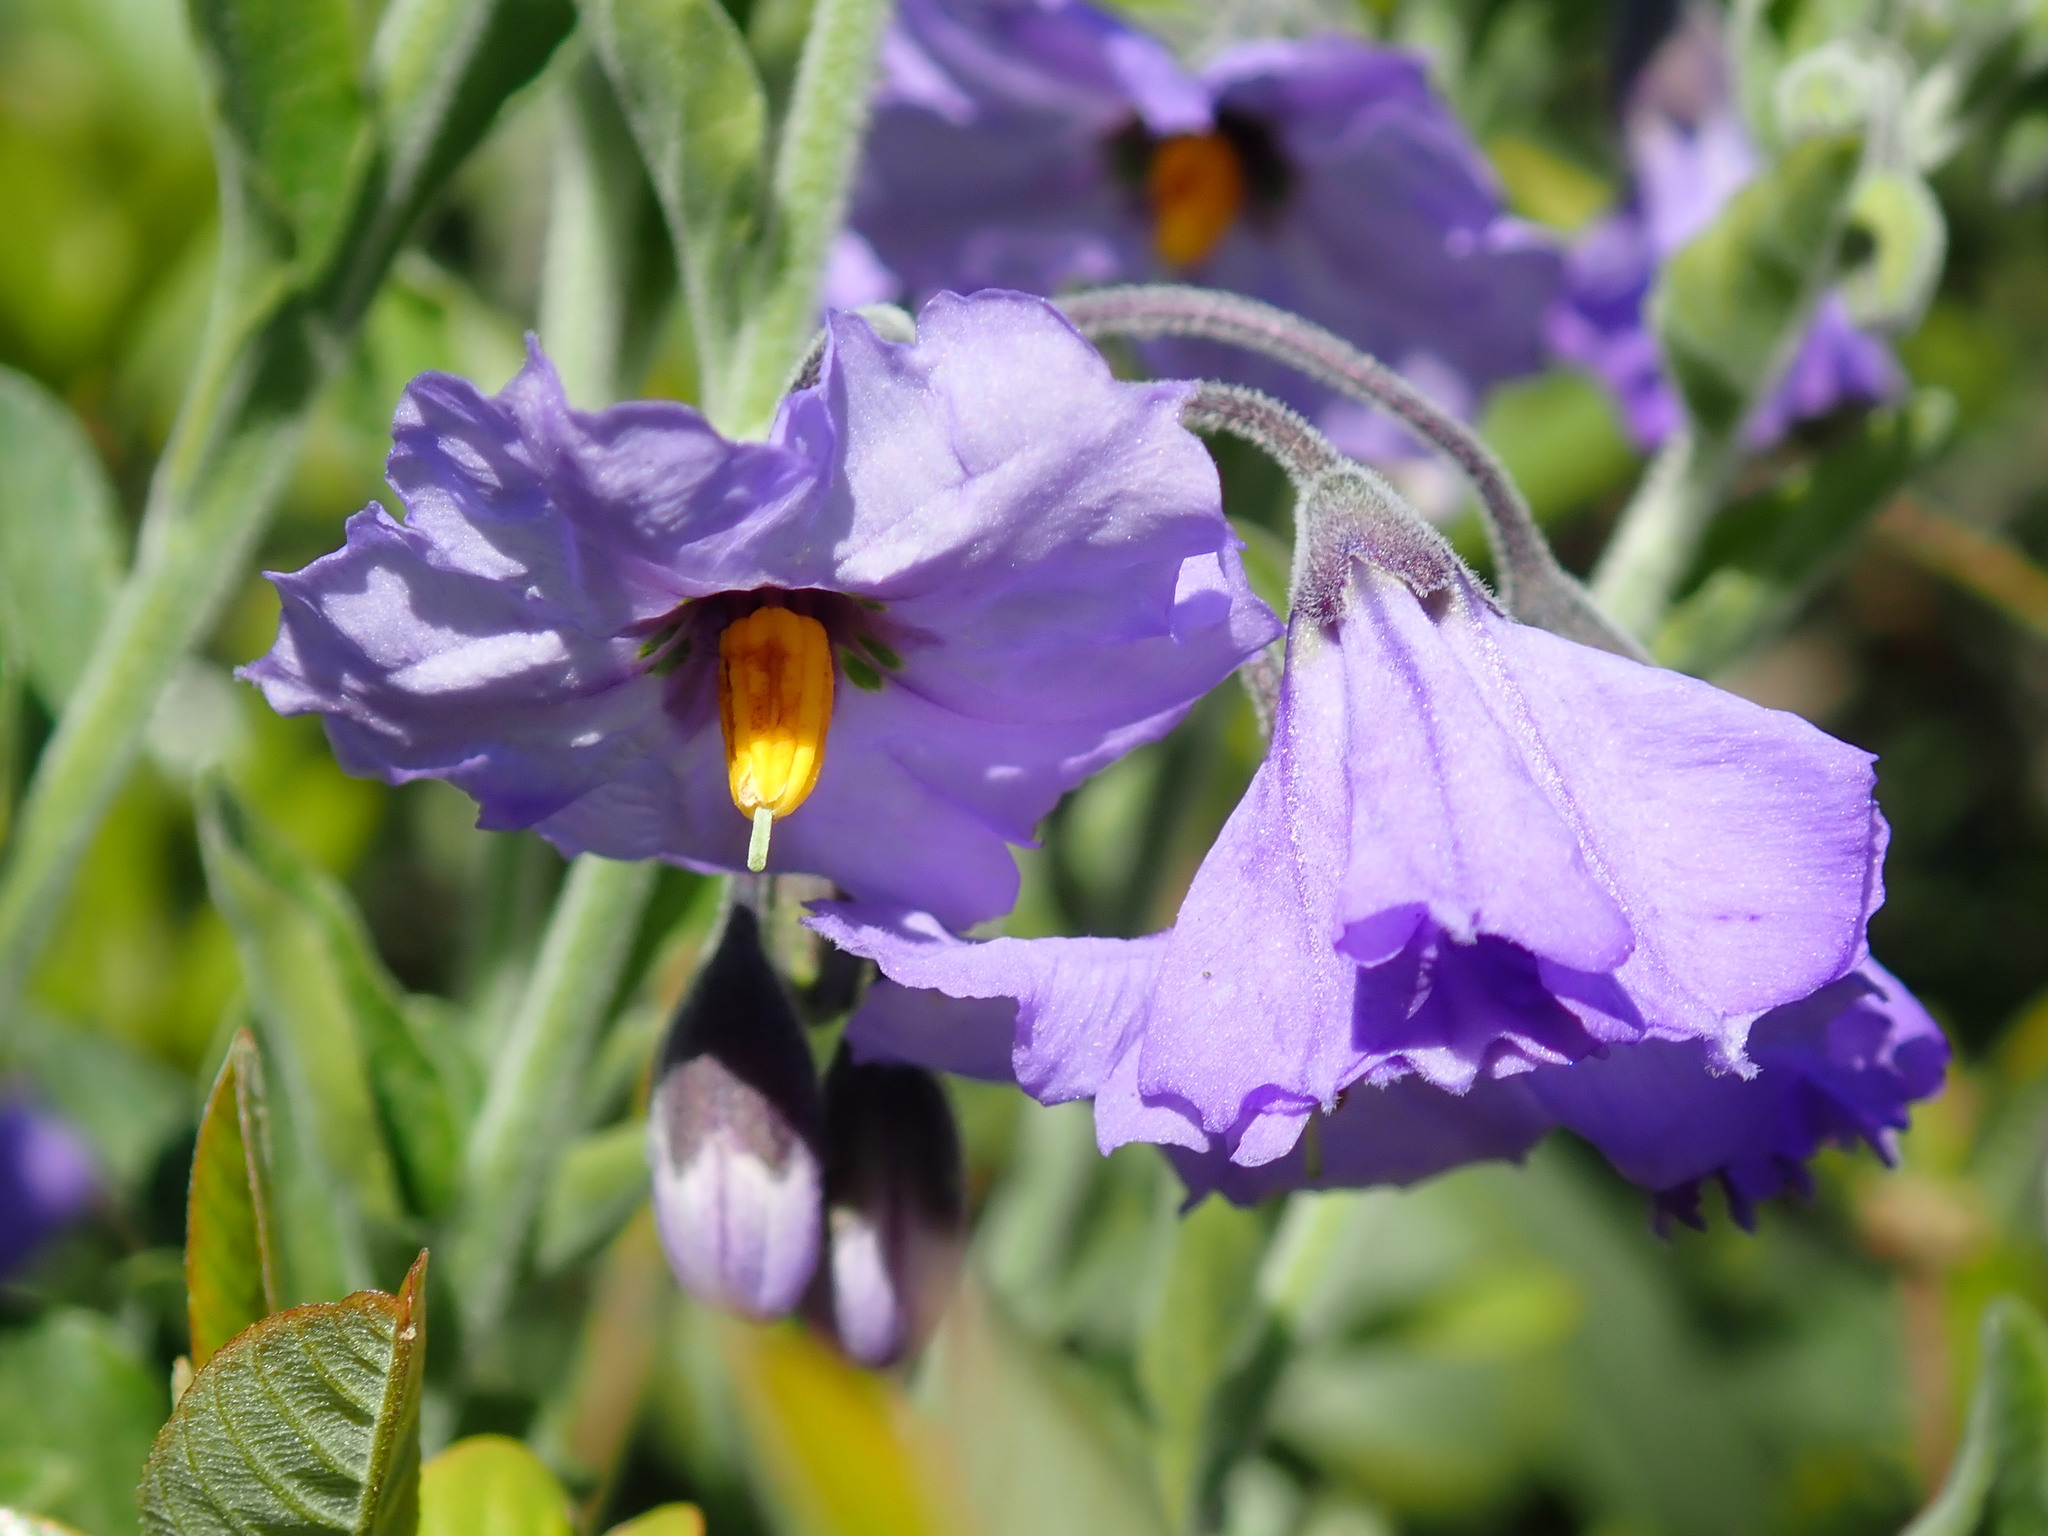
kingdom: Plantae
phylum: Tracheophyta
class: Magnoliopsida
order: Solanales
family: Solanaceae
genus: Solanum
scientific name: Solanum umbelliferum
